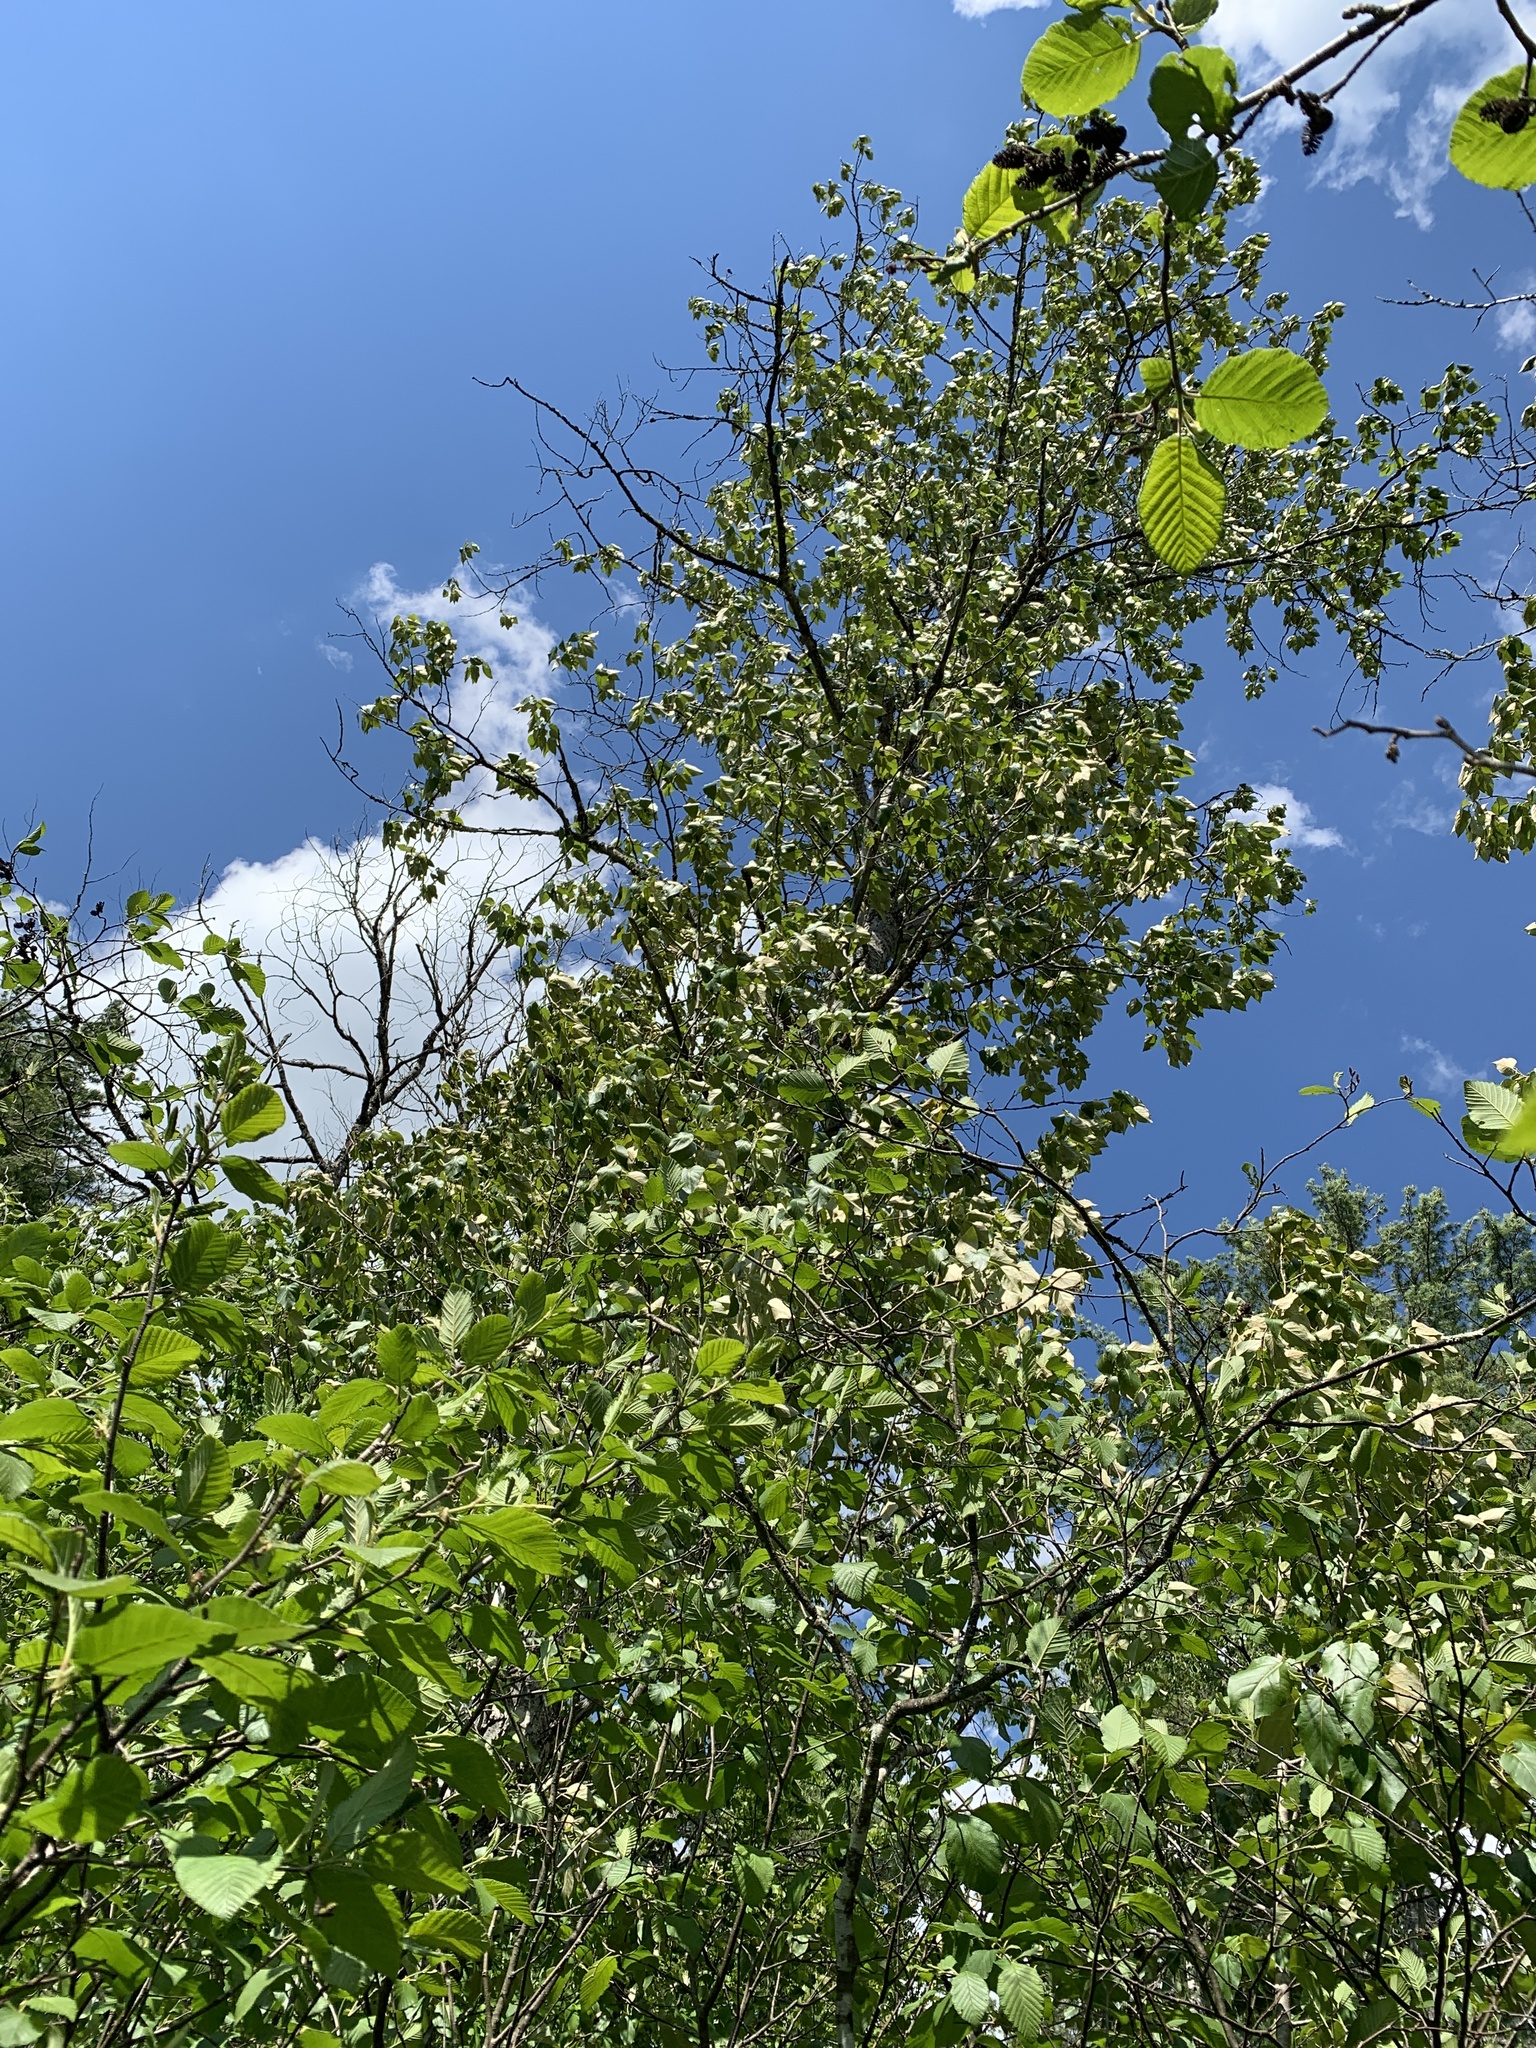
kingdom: Plantae
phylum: Tracheophyta
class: Magnoliopsida
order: Malpighiales
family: Salicaceae
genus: Populus
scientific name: Populus balsamifera
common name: Balsam poplar
